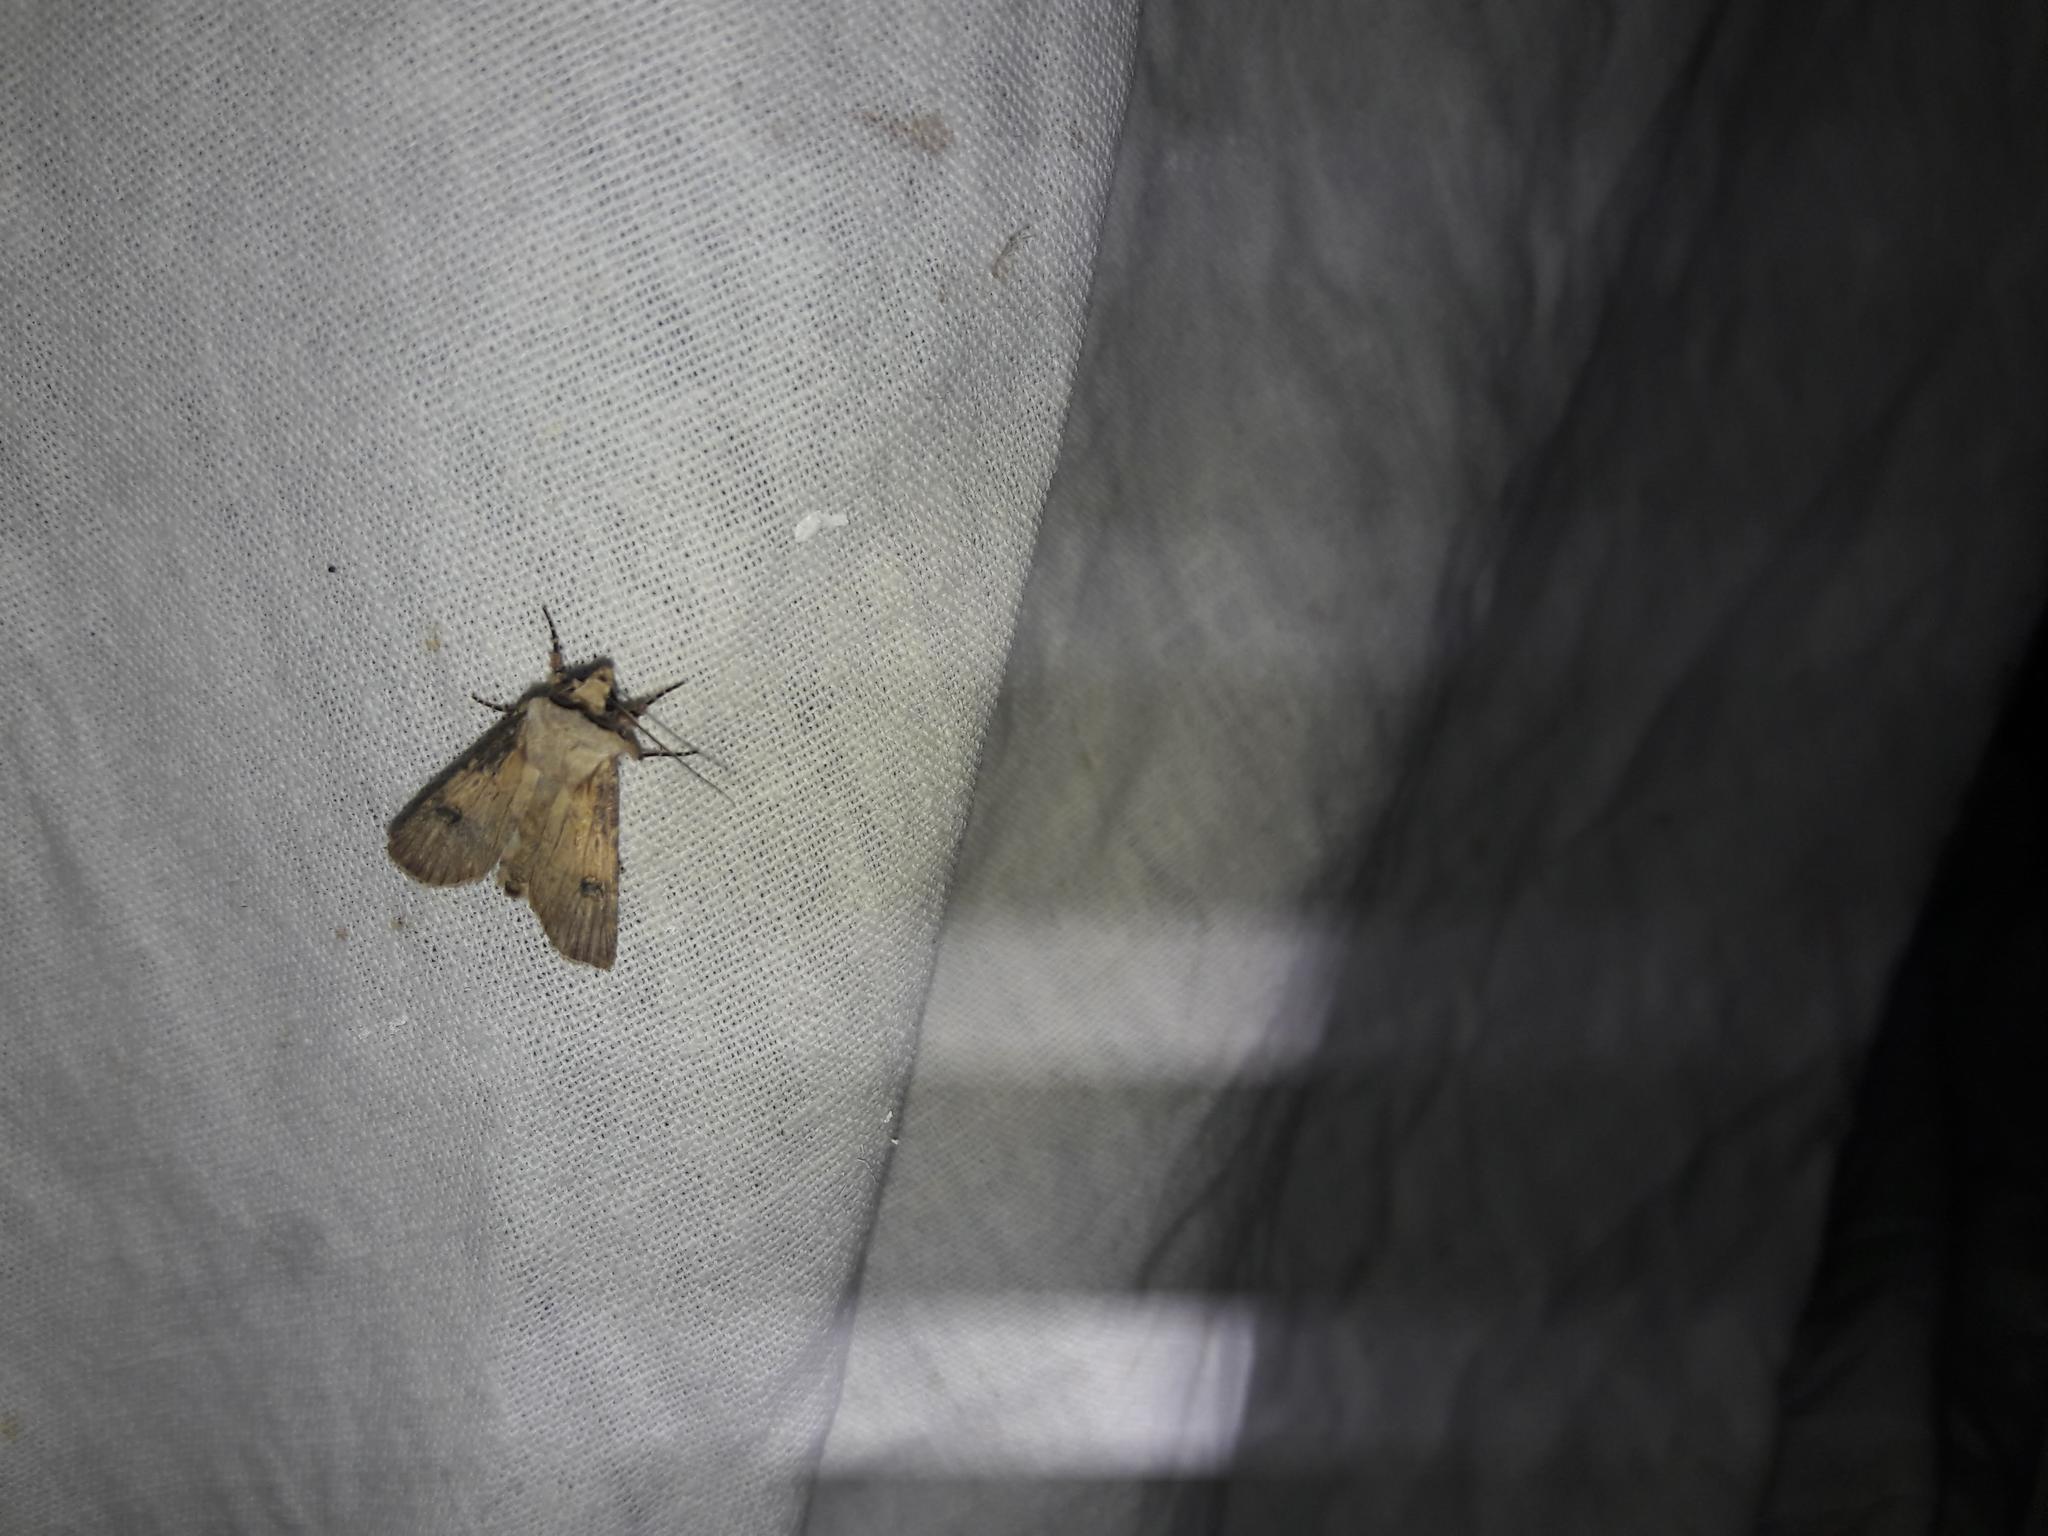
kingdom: Animalia
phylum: Arthropoda
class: Insecta
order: Lepidoptera
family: Noctuidae
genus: Agrotis
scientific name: Agrotis puta
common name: Shuttle-shaped dart
